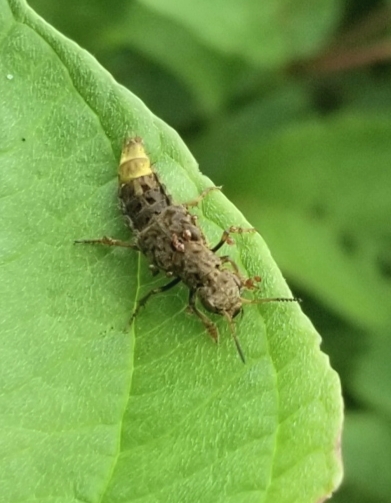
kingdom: Animalia
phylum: Arthropoda
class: Insecta
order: Coleoptera
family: Staphylinidae
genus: Ontholestes
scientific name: Ontholestes cingulatus
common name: Gold-and-brown rove beetle
